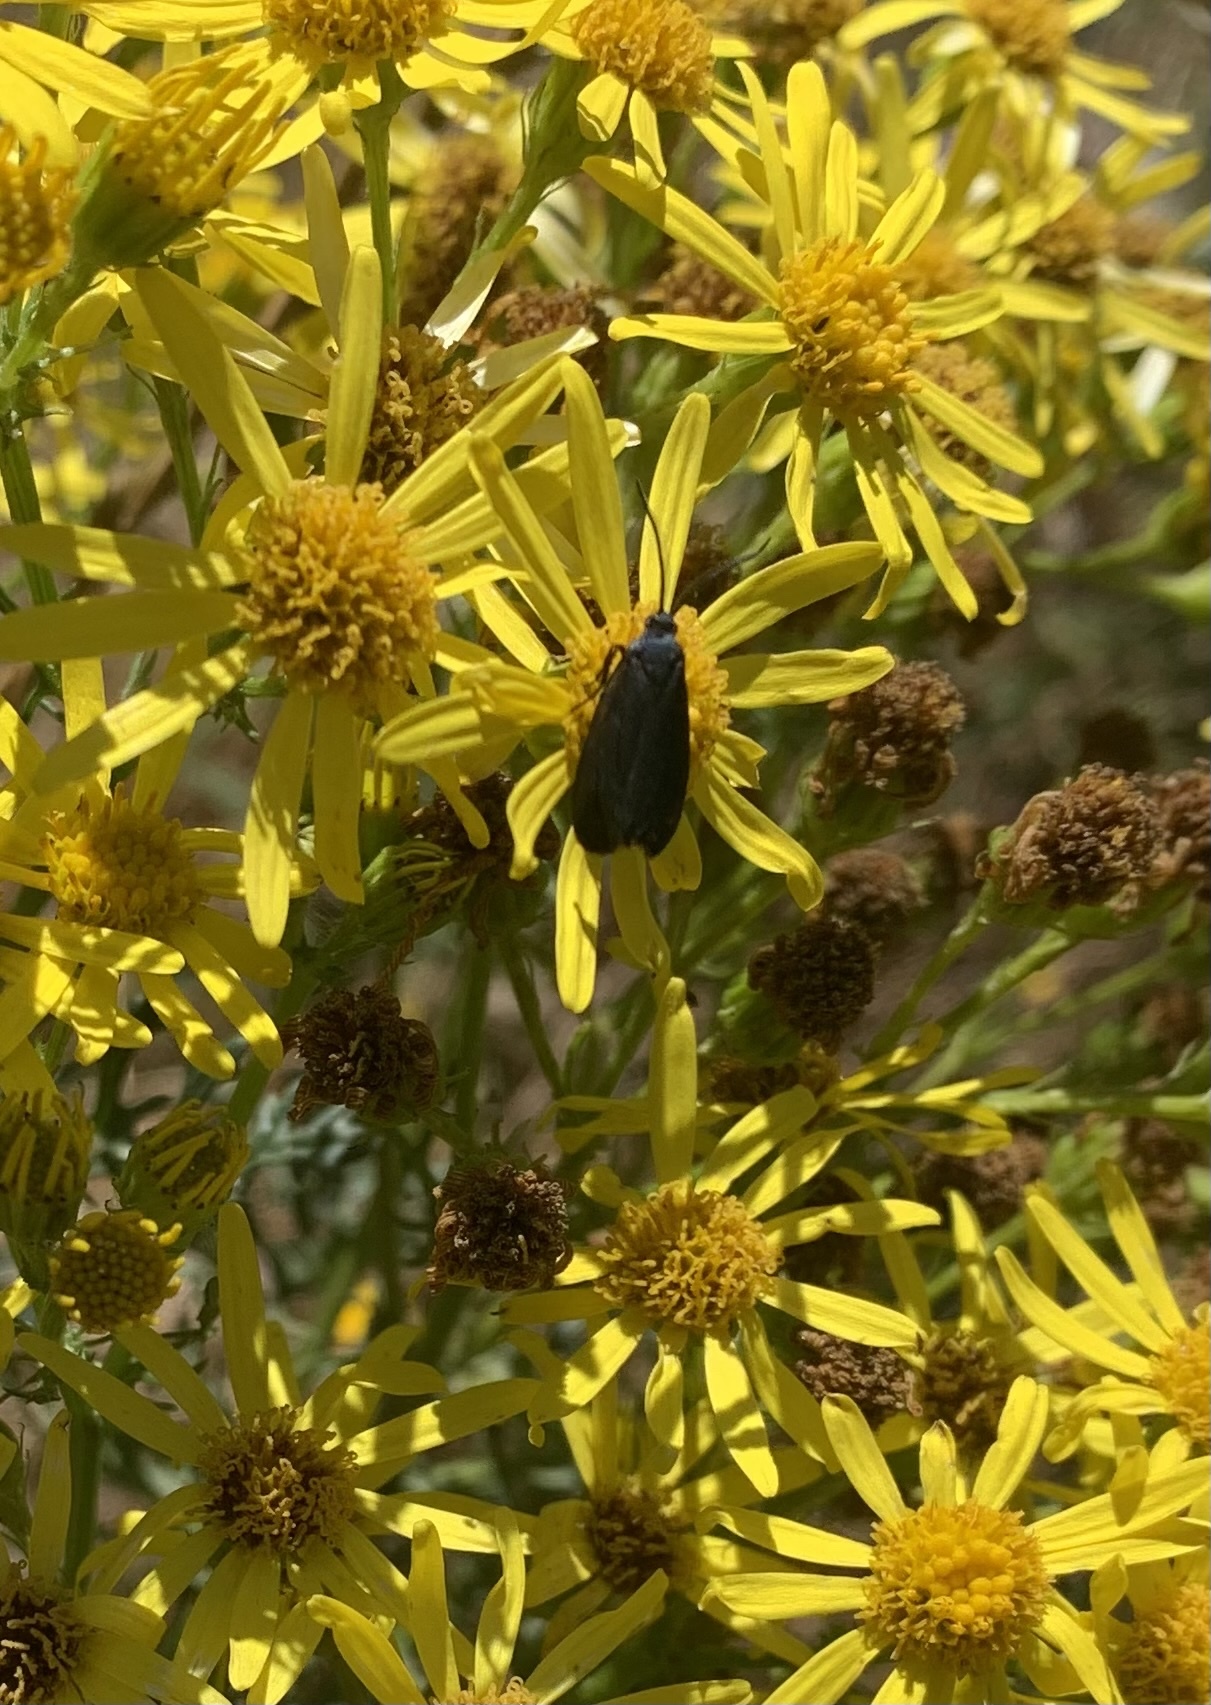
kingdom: Animalia
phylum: Arthropoda
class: Insecta
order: Lepidoptera
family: Zygaenidae
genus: Malamblia
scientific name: Malamblia
